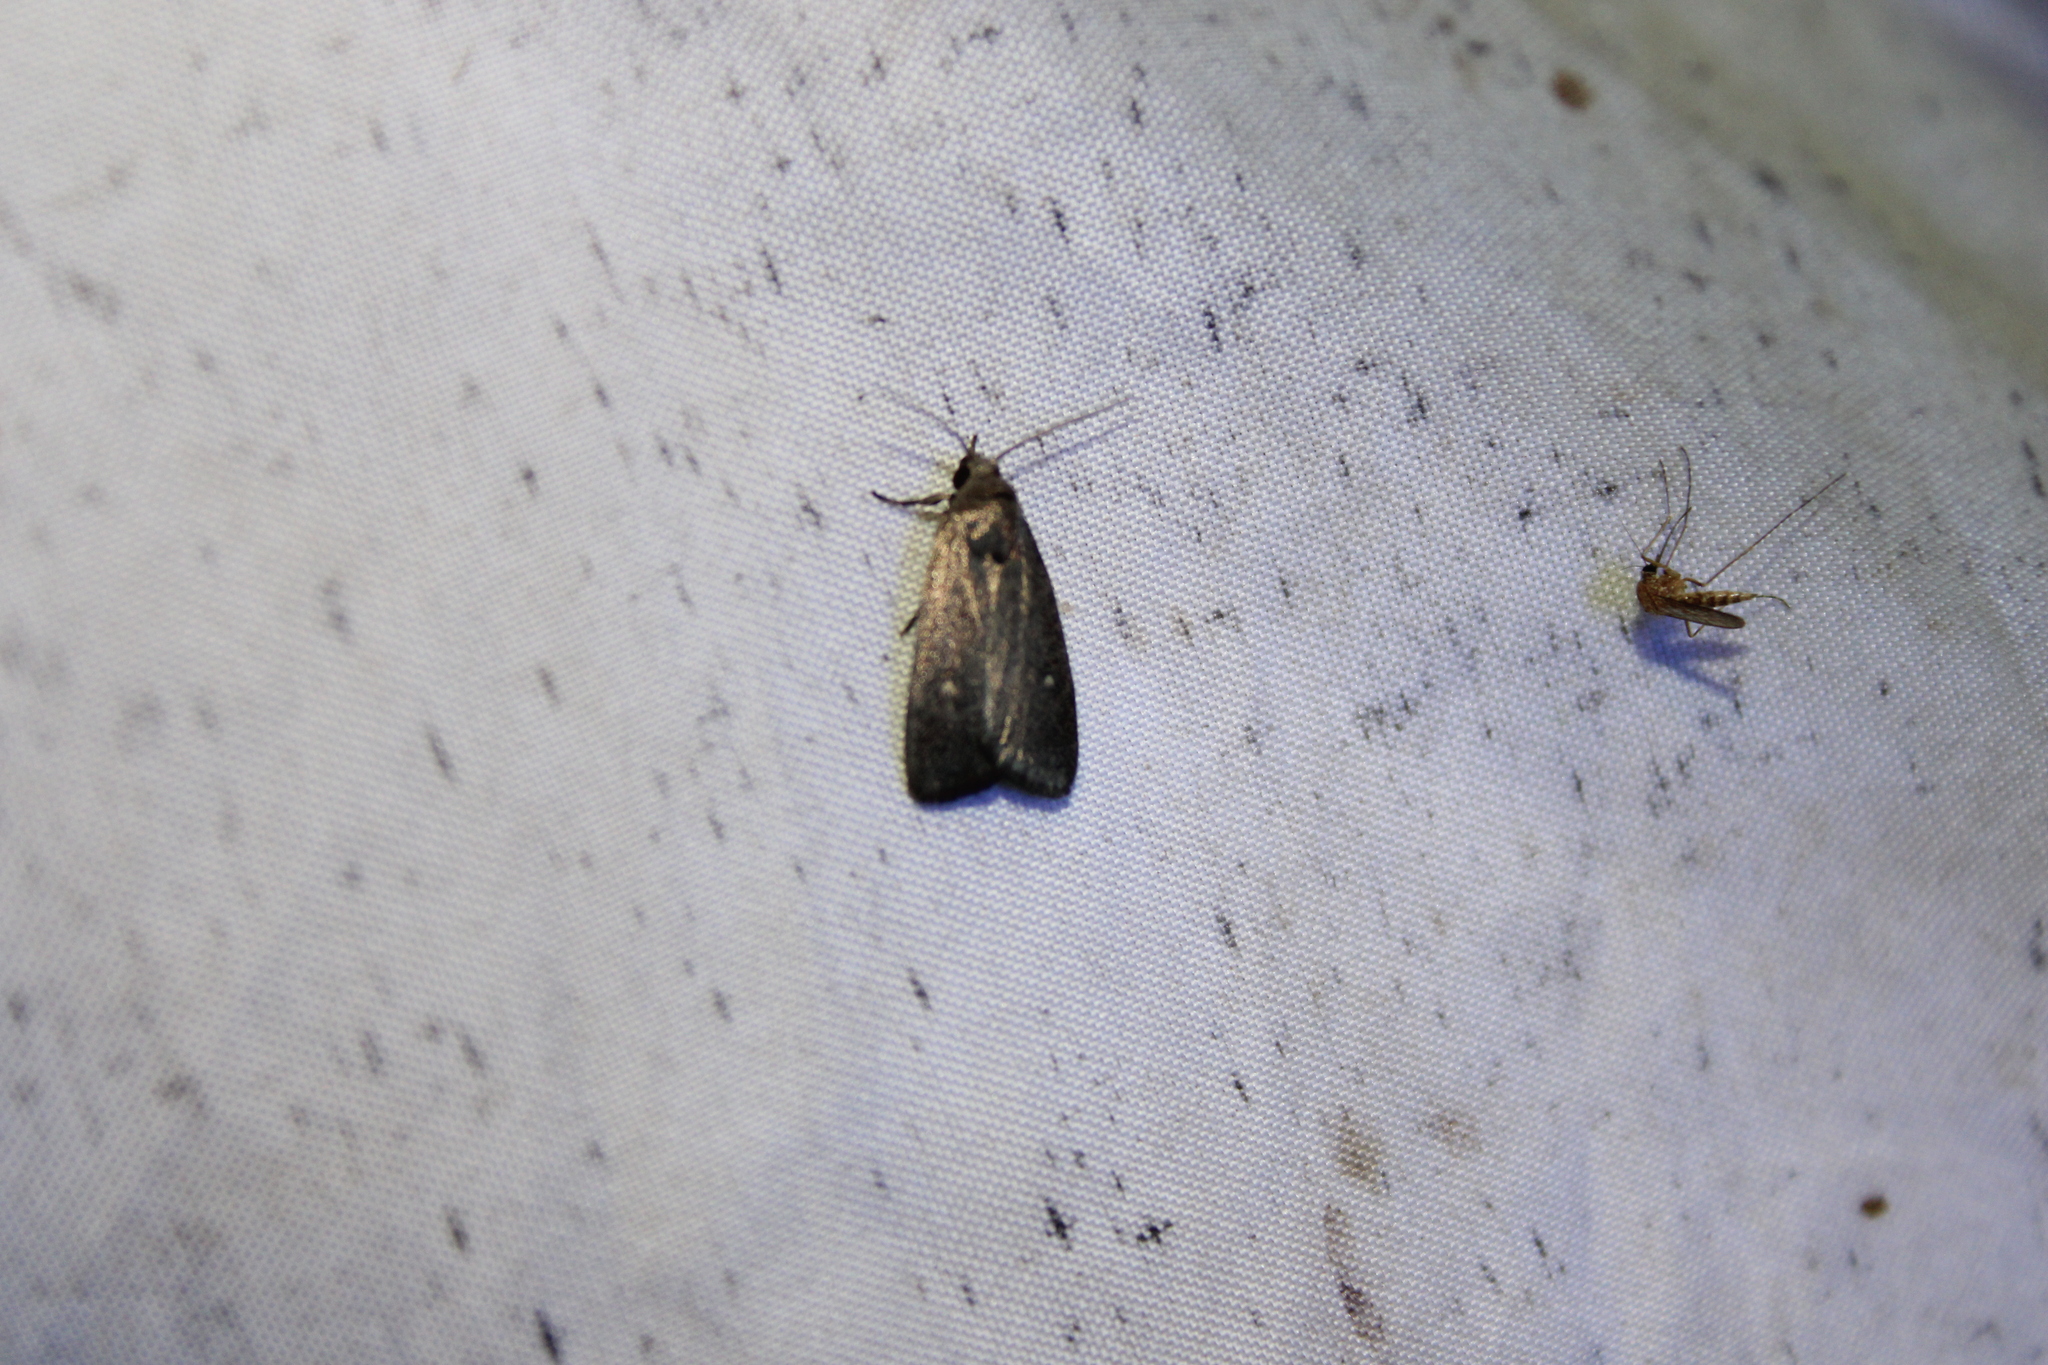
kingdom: Animalia
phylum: Arthropoda
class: Insecta
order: Lepidoptera
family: Noctuidae
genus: Proxenus
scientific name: Proxenus miranda
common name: Miranda moth
